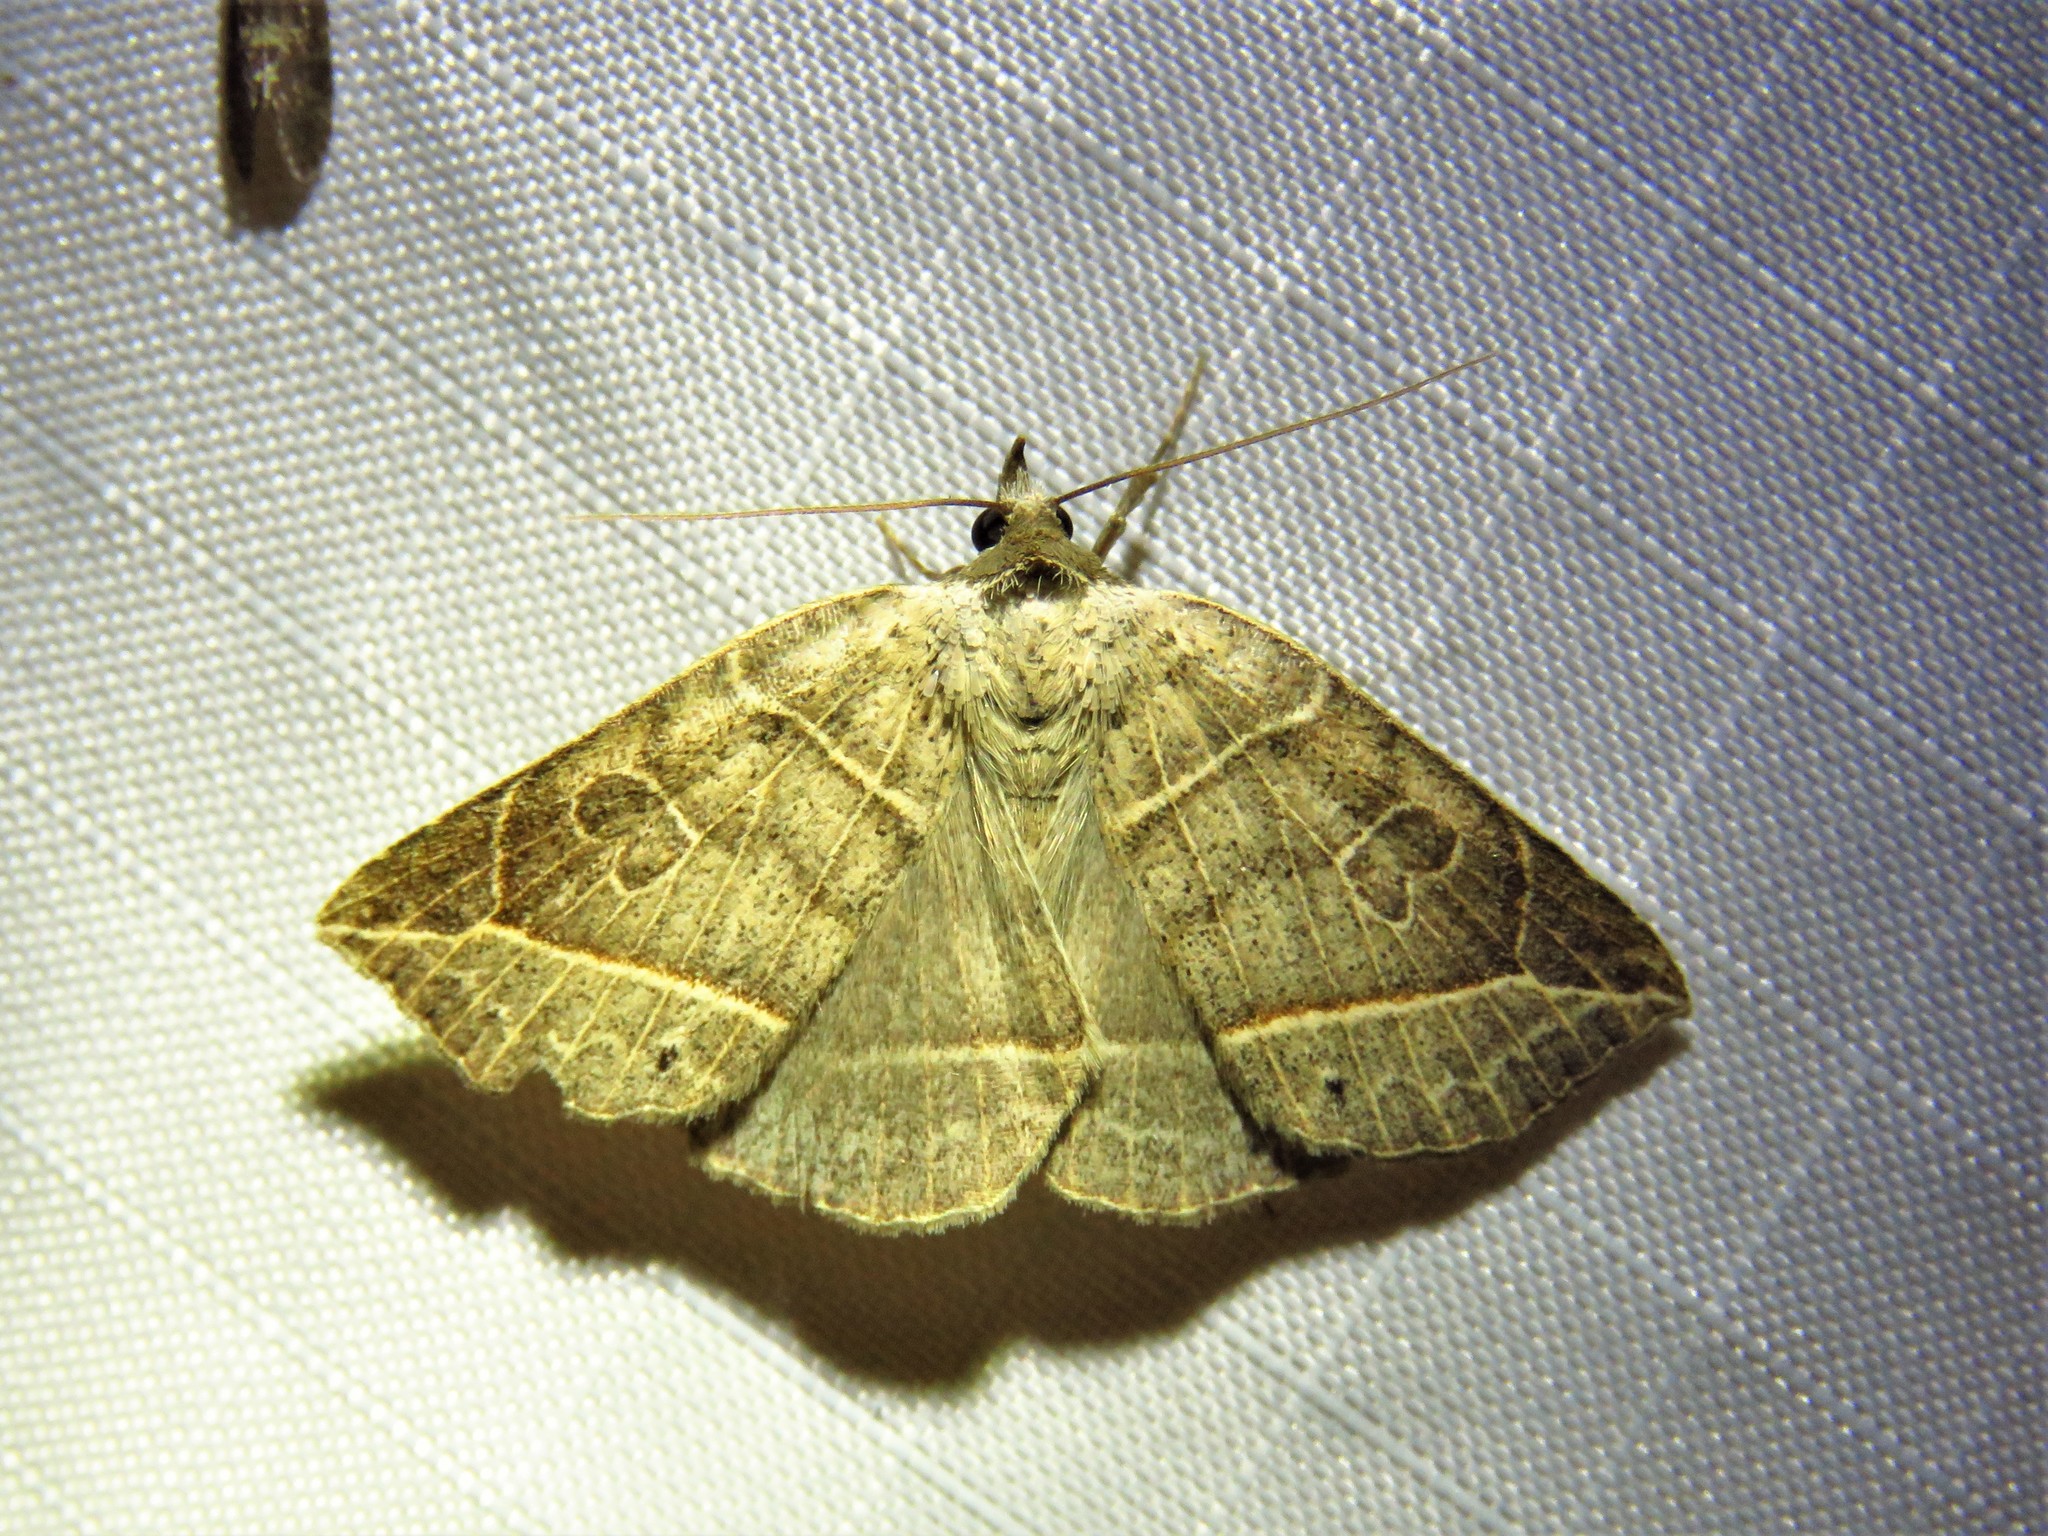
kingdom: Animalia
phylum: Arthropoda
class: Insecta
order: Lepidoptera
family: Erebidae
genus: Isogona
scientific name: Isogona tenuis
